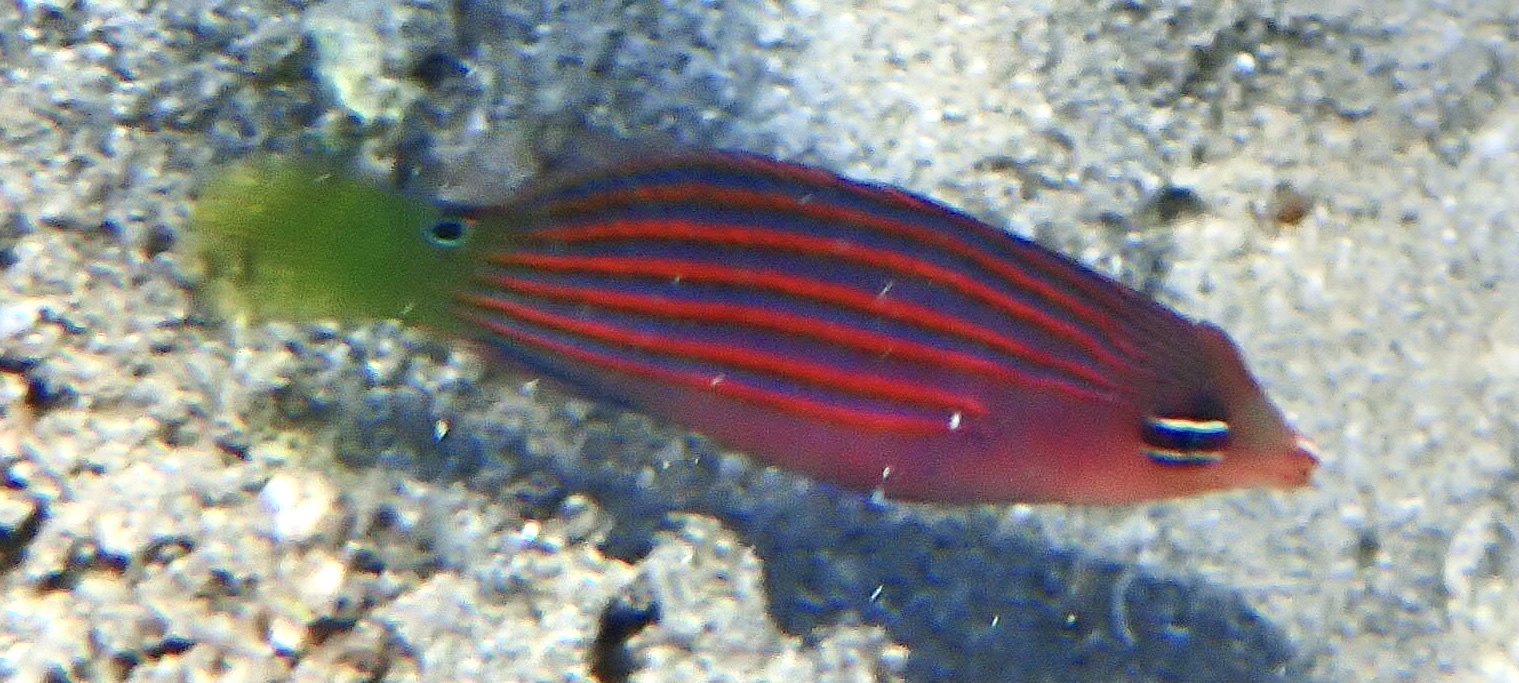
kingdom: Animalia
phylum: Chordata
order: Perciformes
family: Labridae
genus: Pseudocheilinus
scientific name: Pseudocheilinus hexataenia
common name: Sixline wrasse
